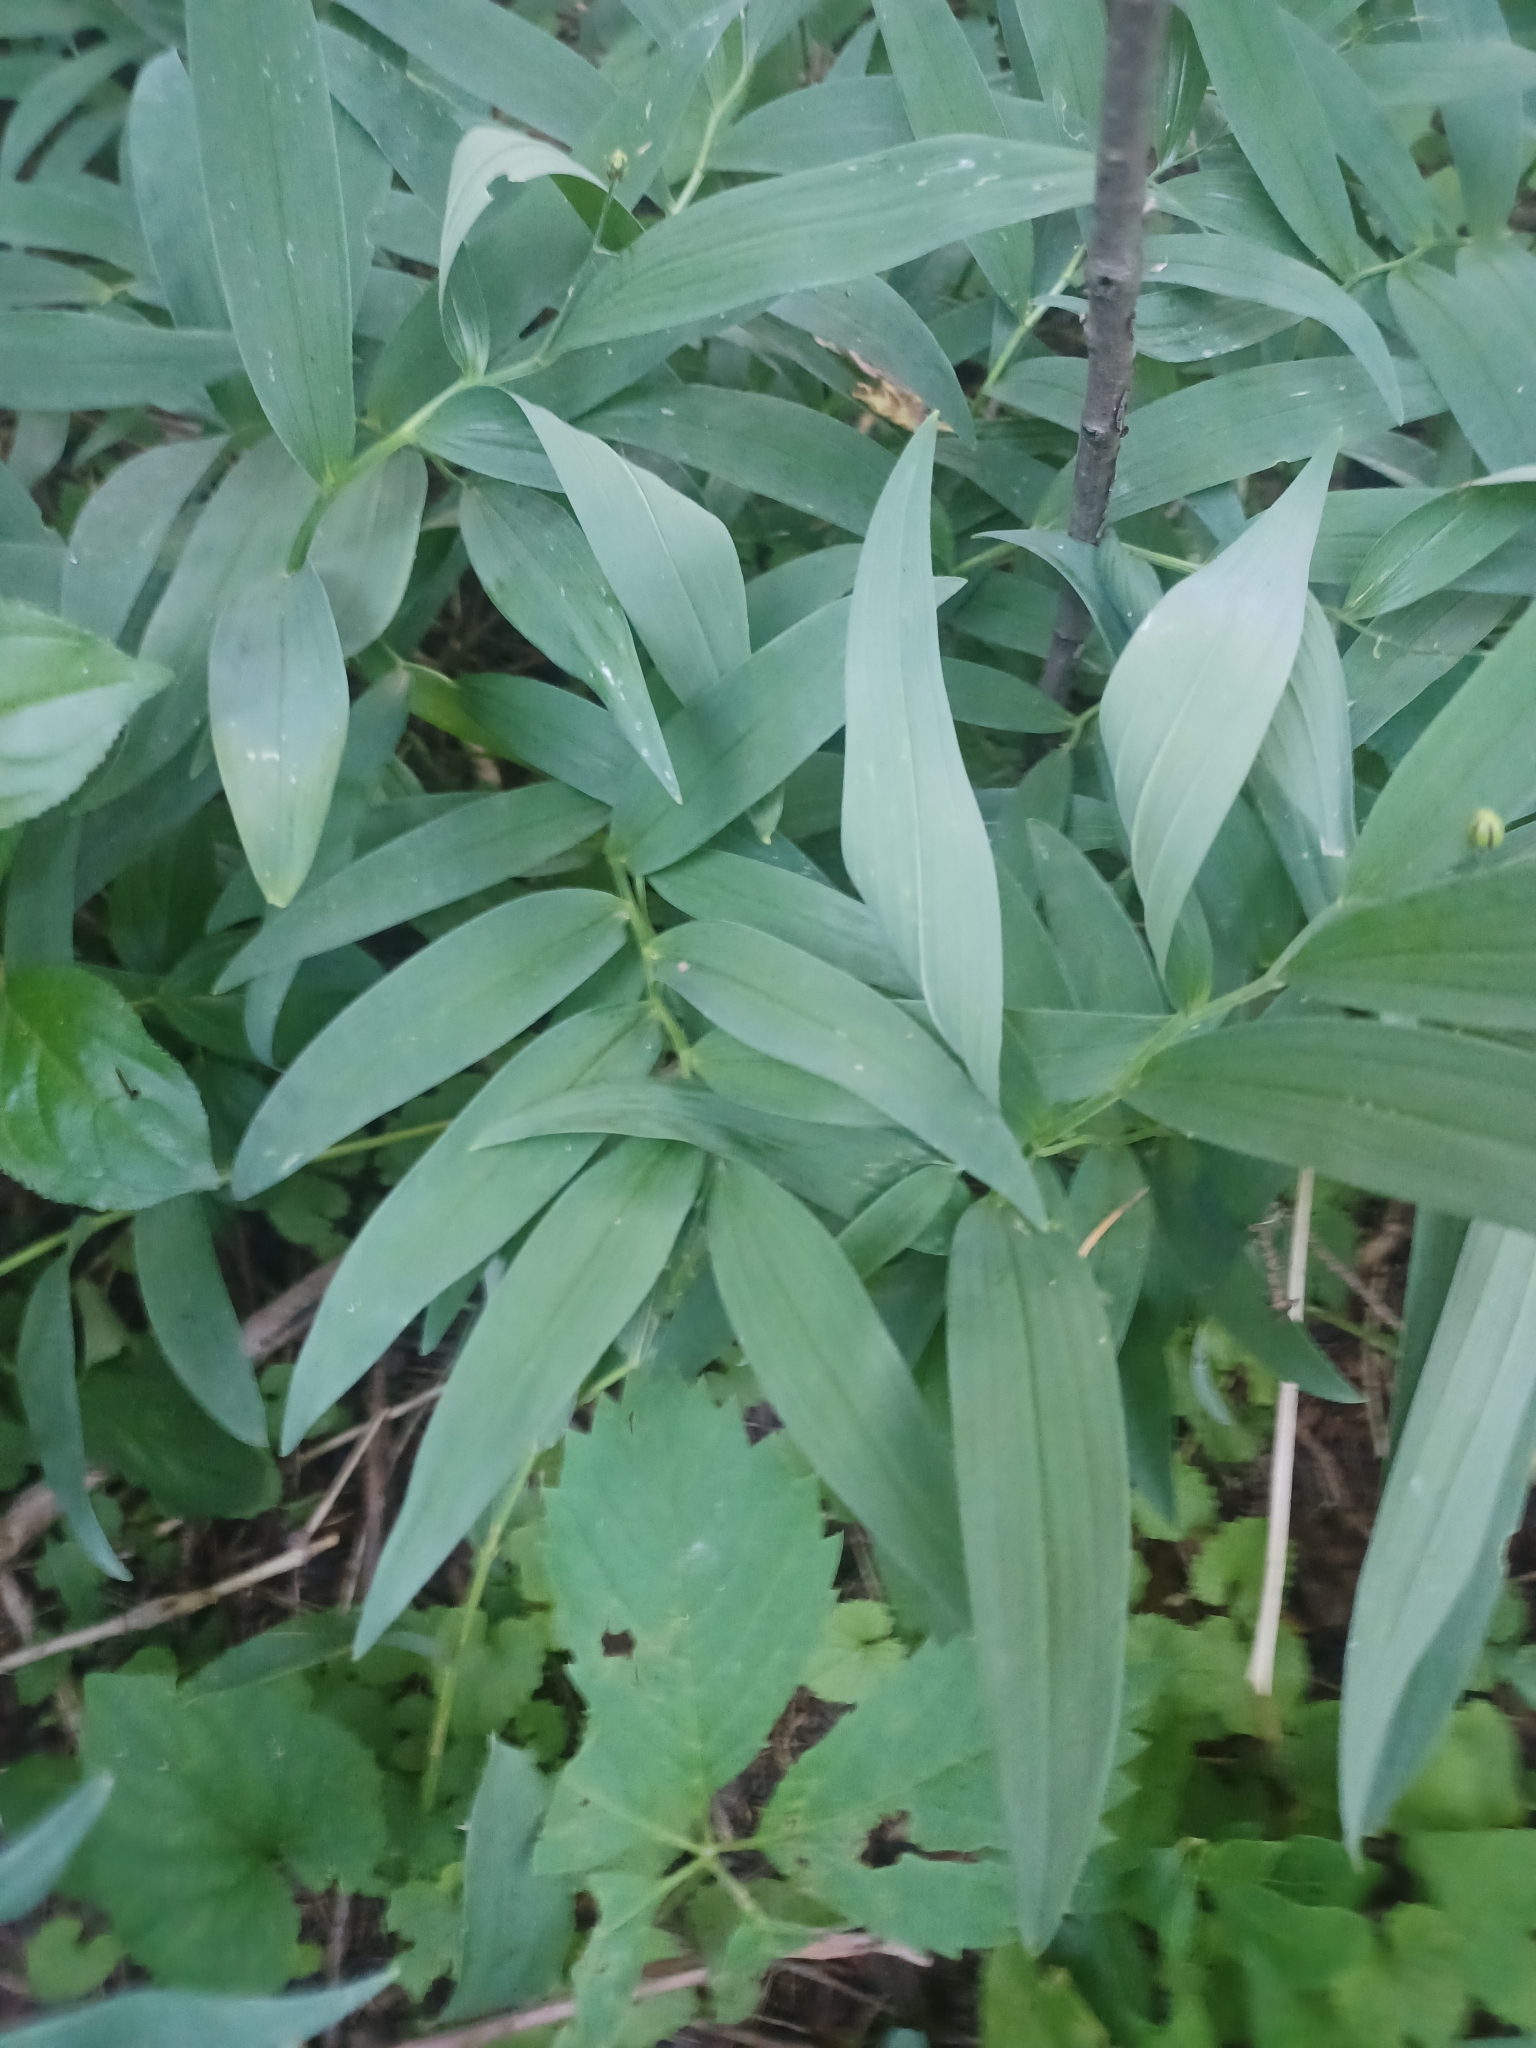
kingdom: Plantae
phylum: Tracheophyta
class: Liliopsida
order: Asparagales
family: Asparagaceae
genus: Maianthemum
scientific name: Maianthemum stellatum
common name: Little false solomon's seal
